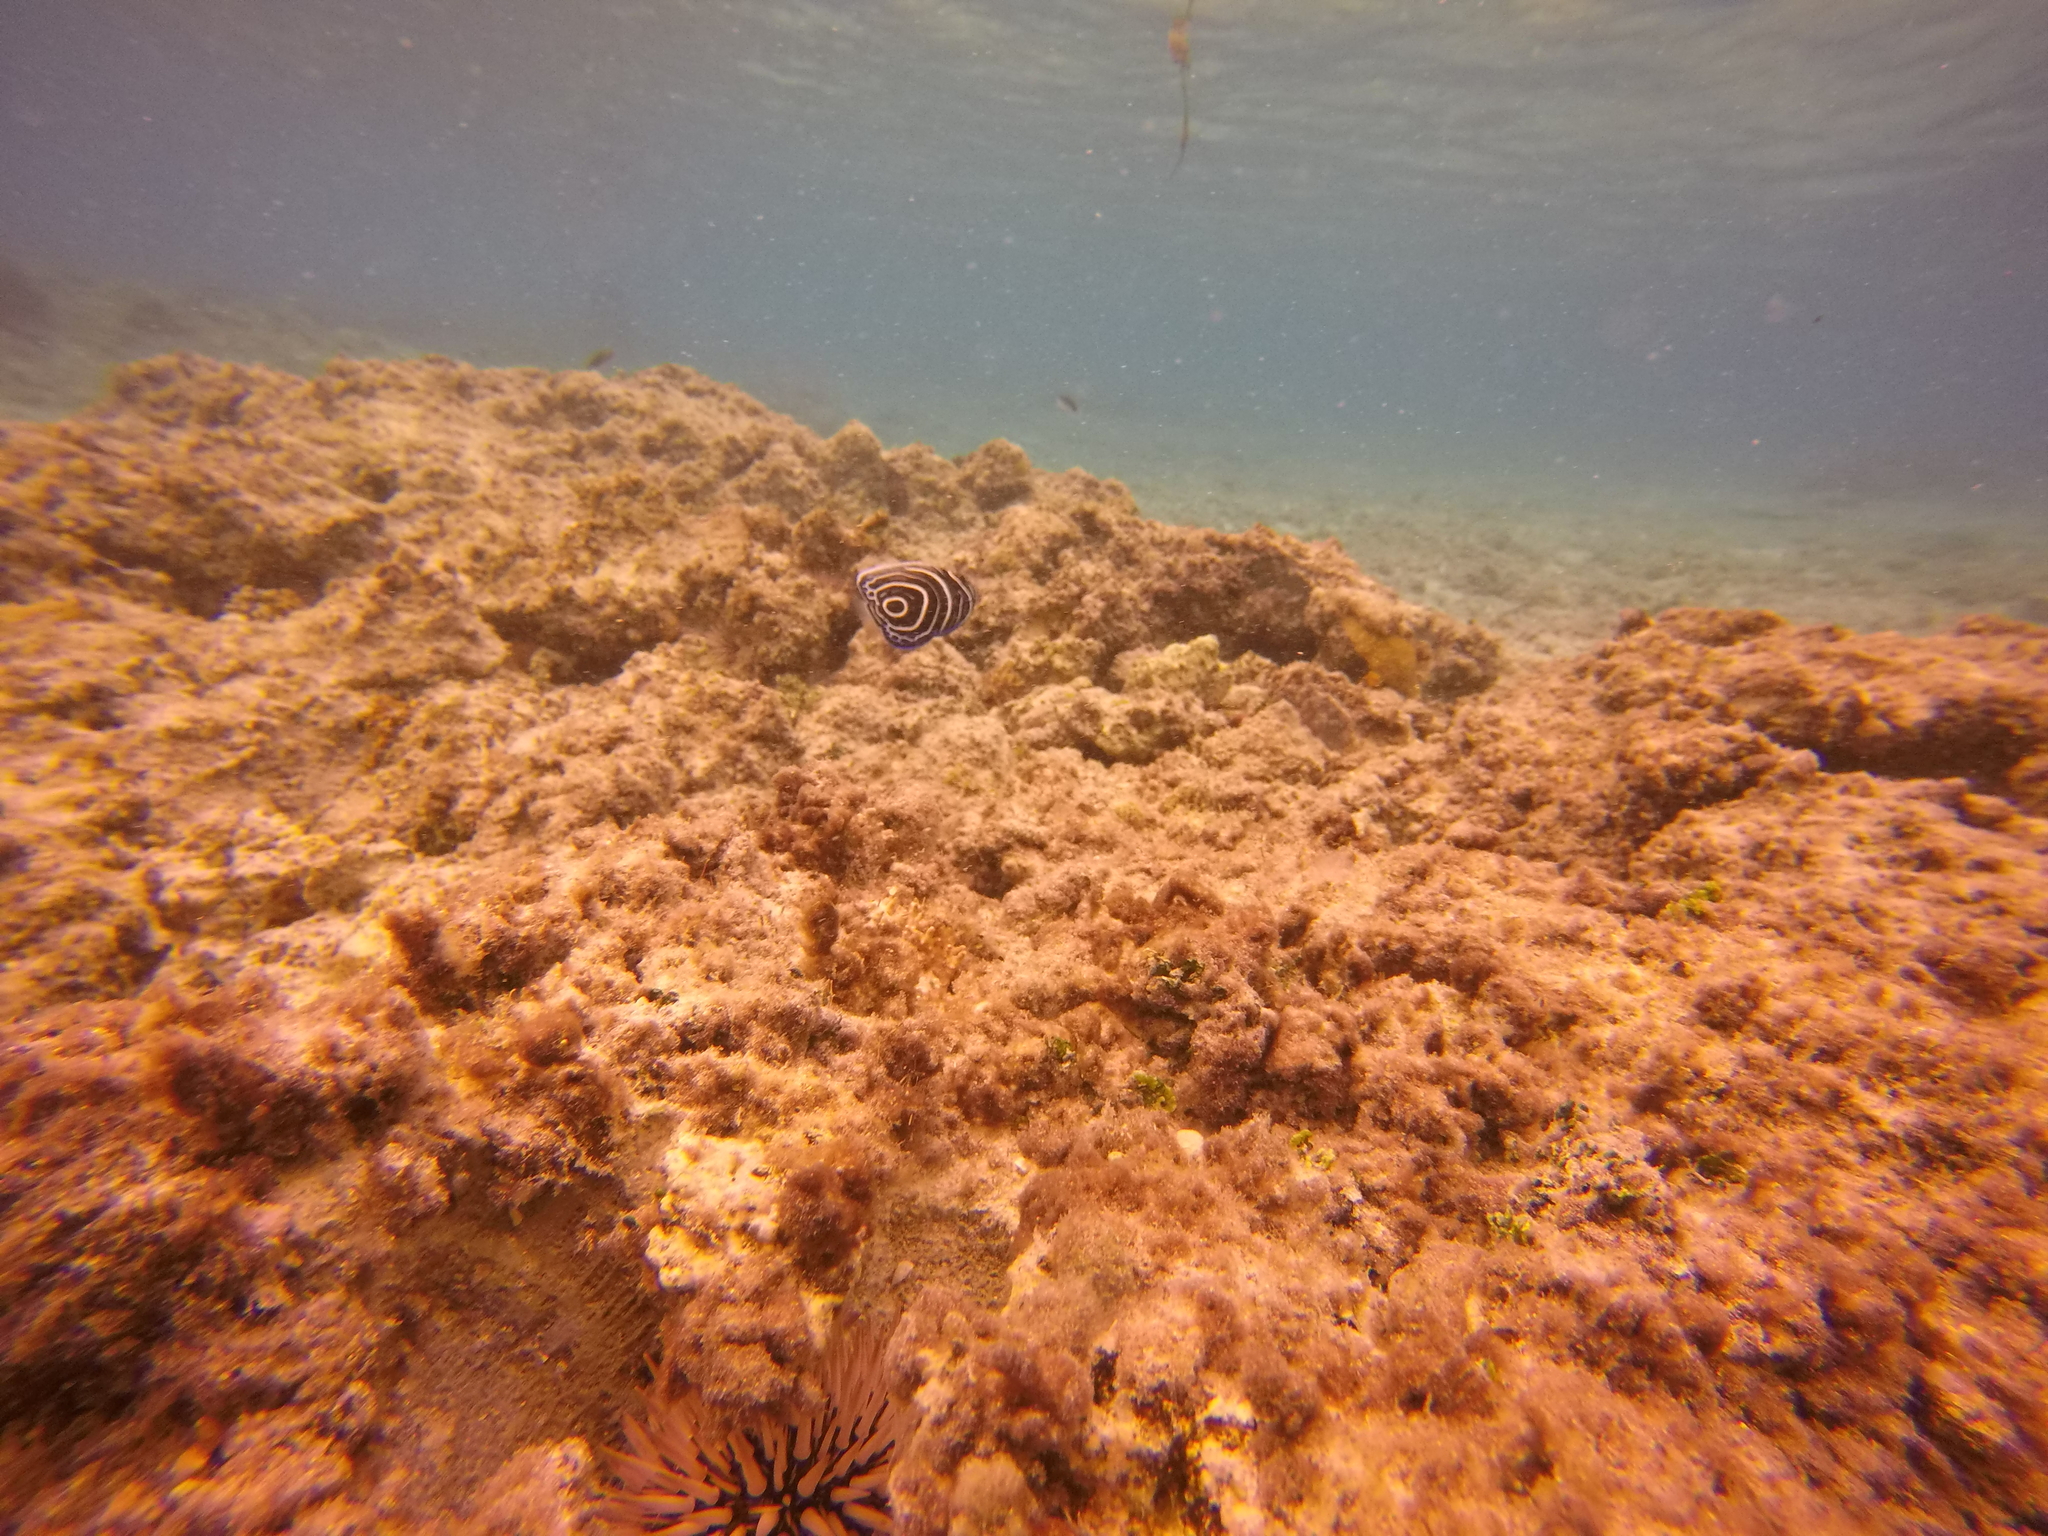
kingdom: Animalia
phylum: Chordata
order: Perciformes
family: Pomacanthidae
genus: Pomacanthus
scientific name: Pomacanthus imperator
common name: Emperor angelfish
